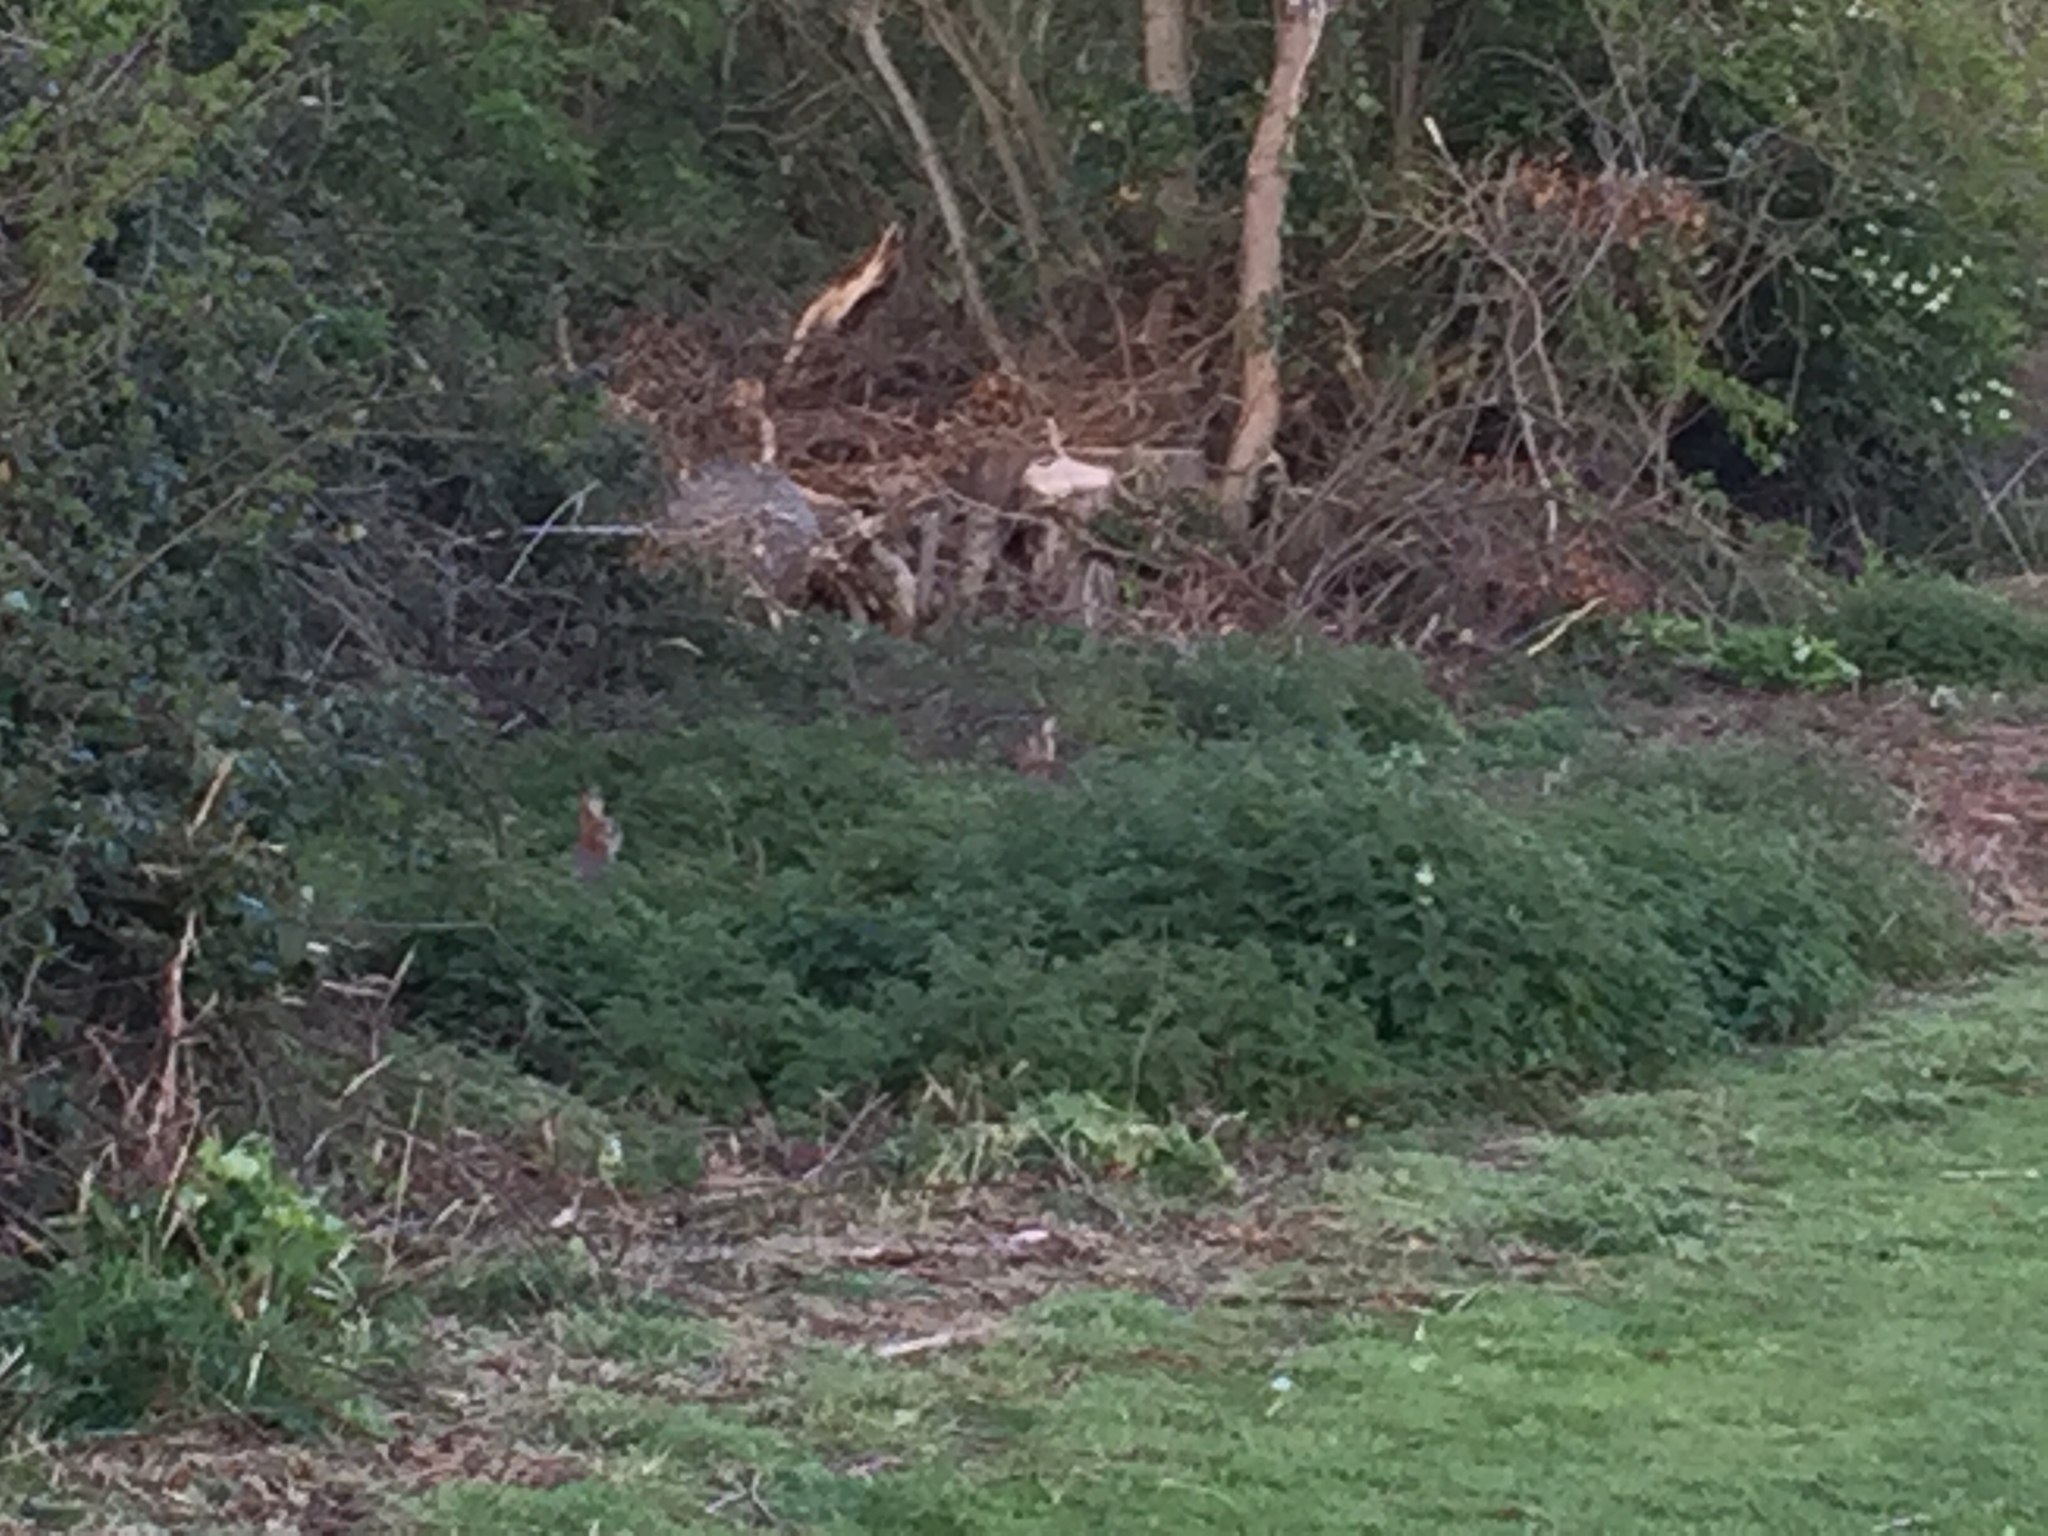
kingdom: Animalia
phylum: Chordata
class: Mammalia
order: Lagomorpha
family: Leporidae
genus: Oryctolagus
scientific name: Oryctolagus cuniculus
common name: European rabbit
